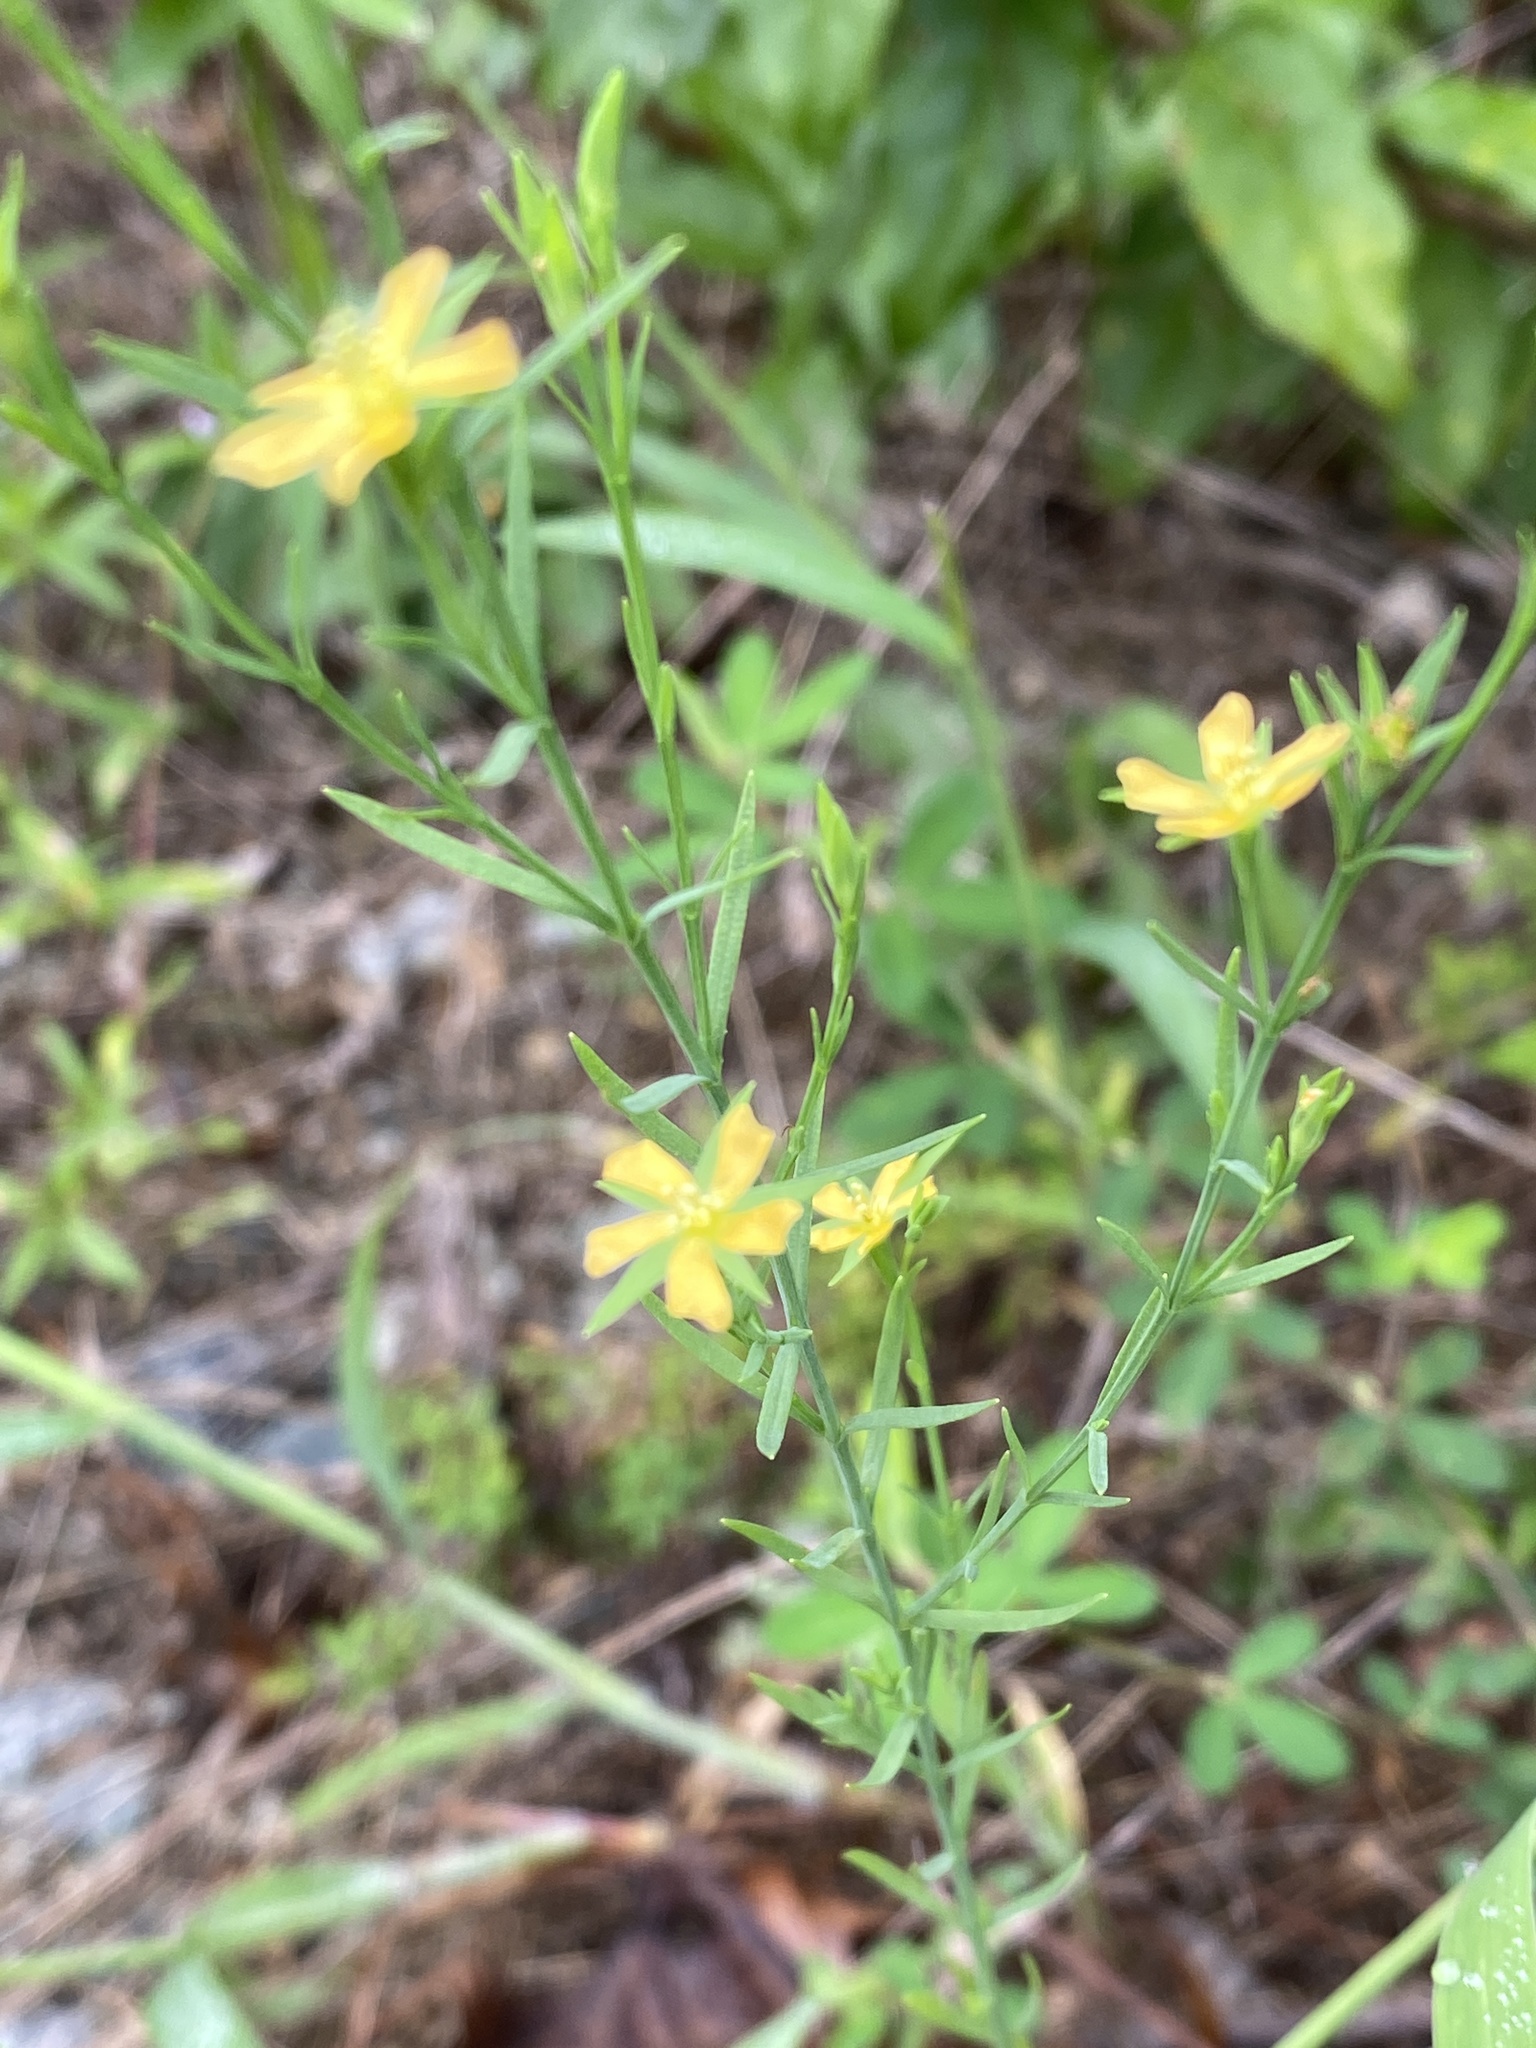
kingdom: Plantae
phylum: Tracheophyta
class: Magnoliopsida
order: Malpighiales
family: Hypericaceae
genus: Hypericum
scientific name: Hypericum drummondii
